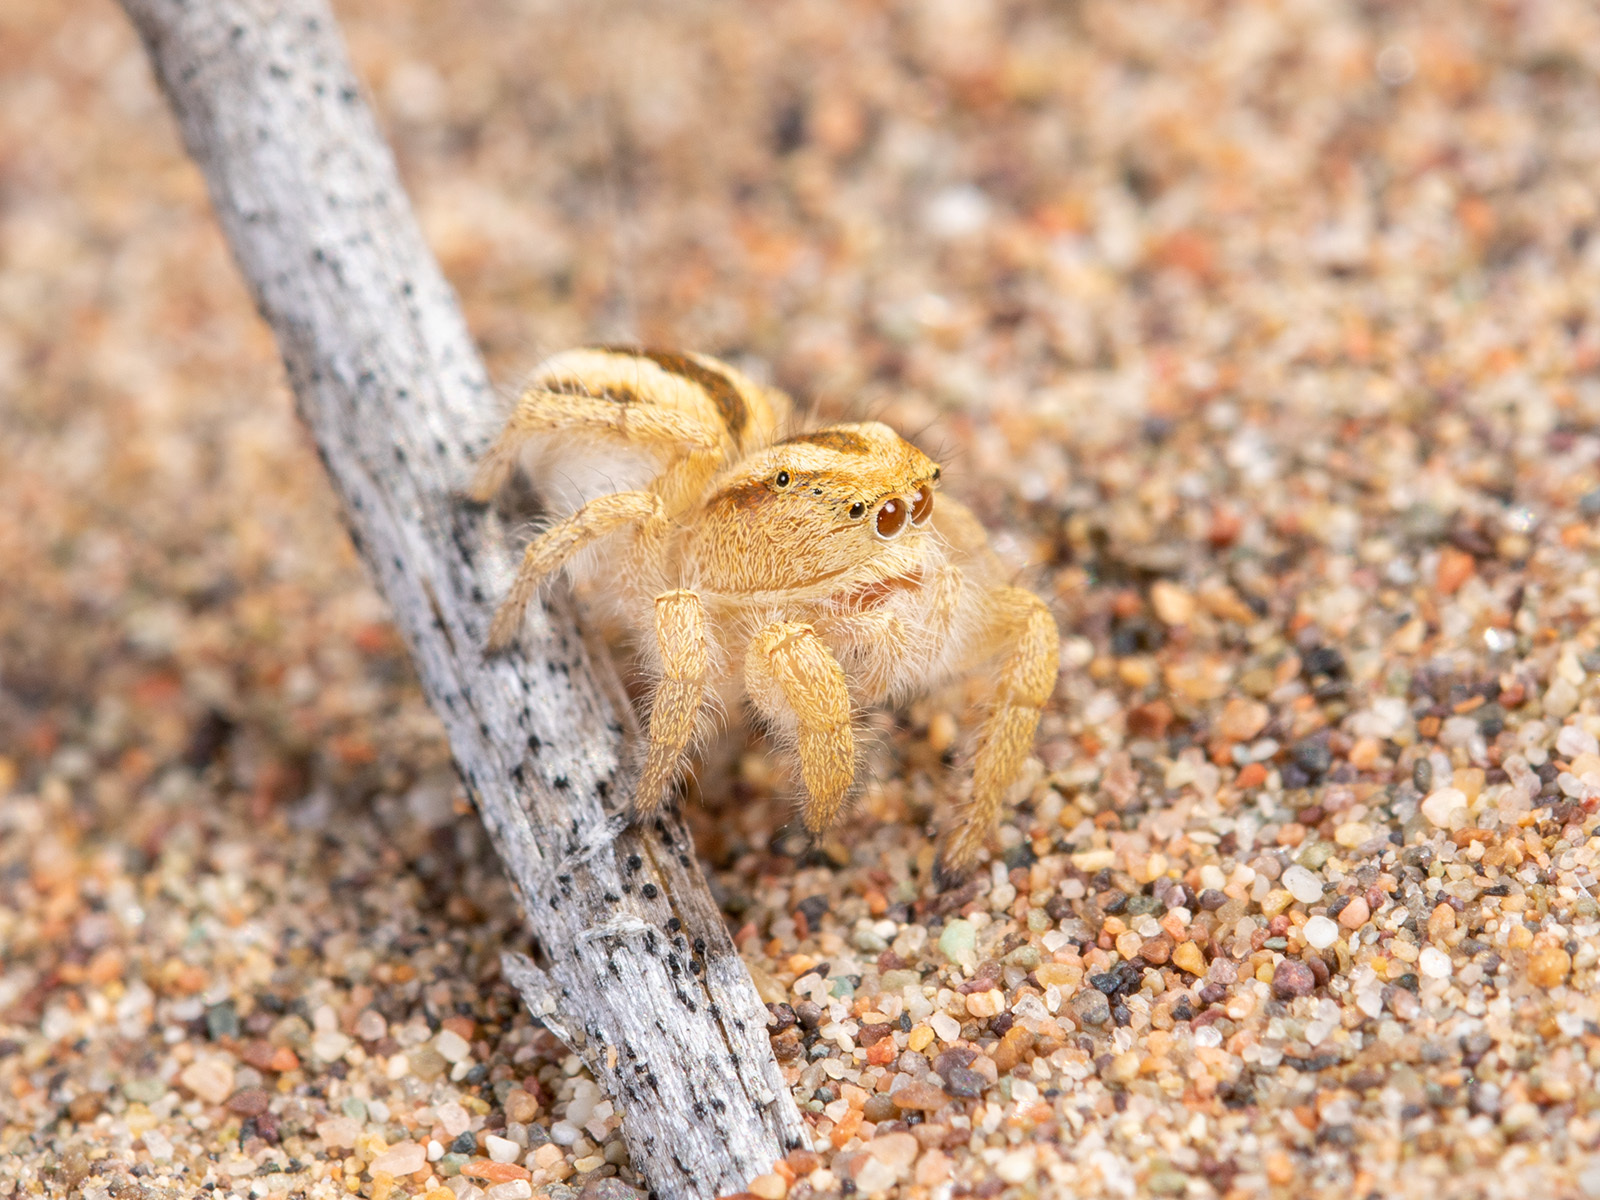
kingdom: Animalia
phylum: Arthropoda
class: Arachnida
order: Araneae
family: Salticidae
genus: Pseudomogrus
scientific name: Pseudomogrus zhilgaensis
